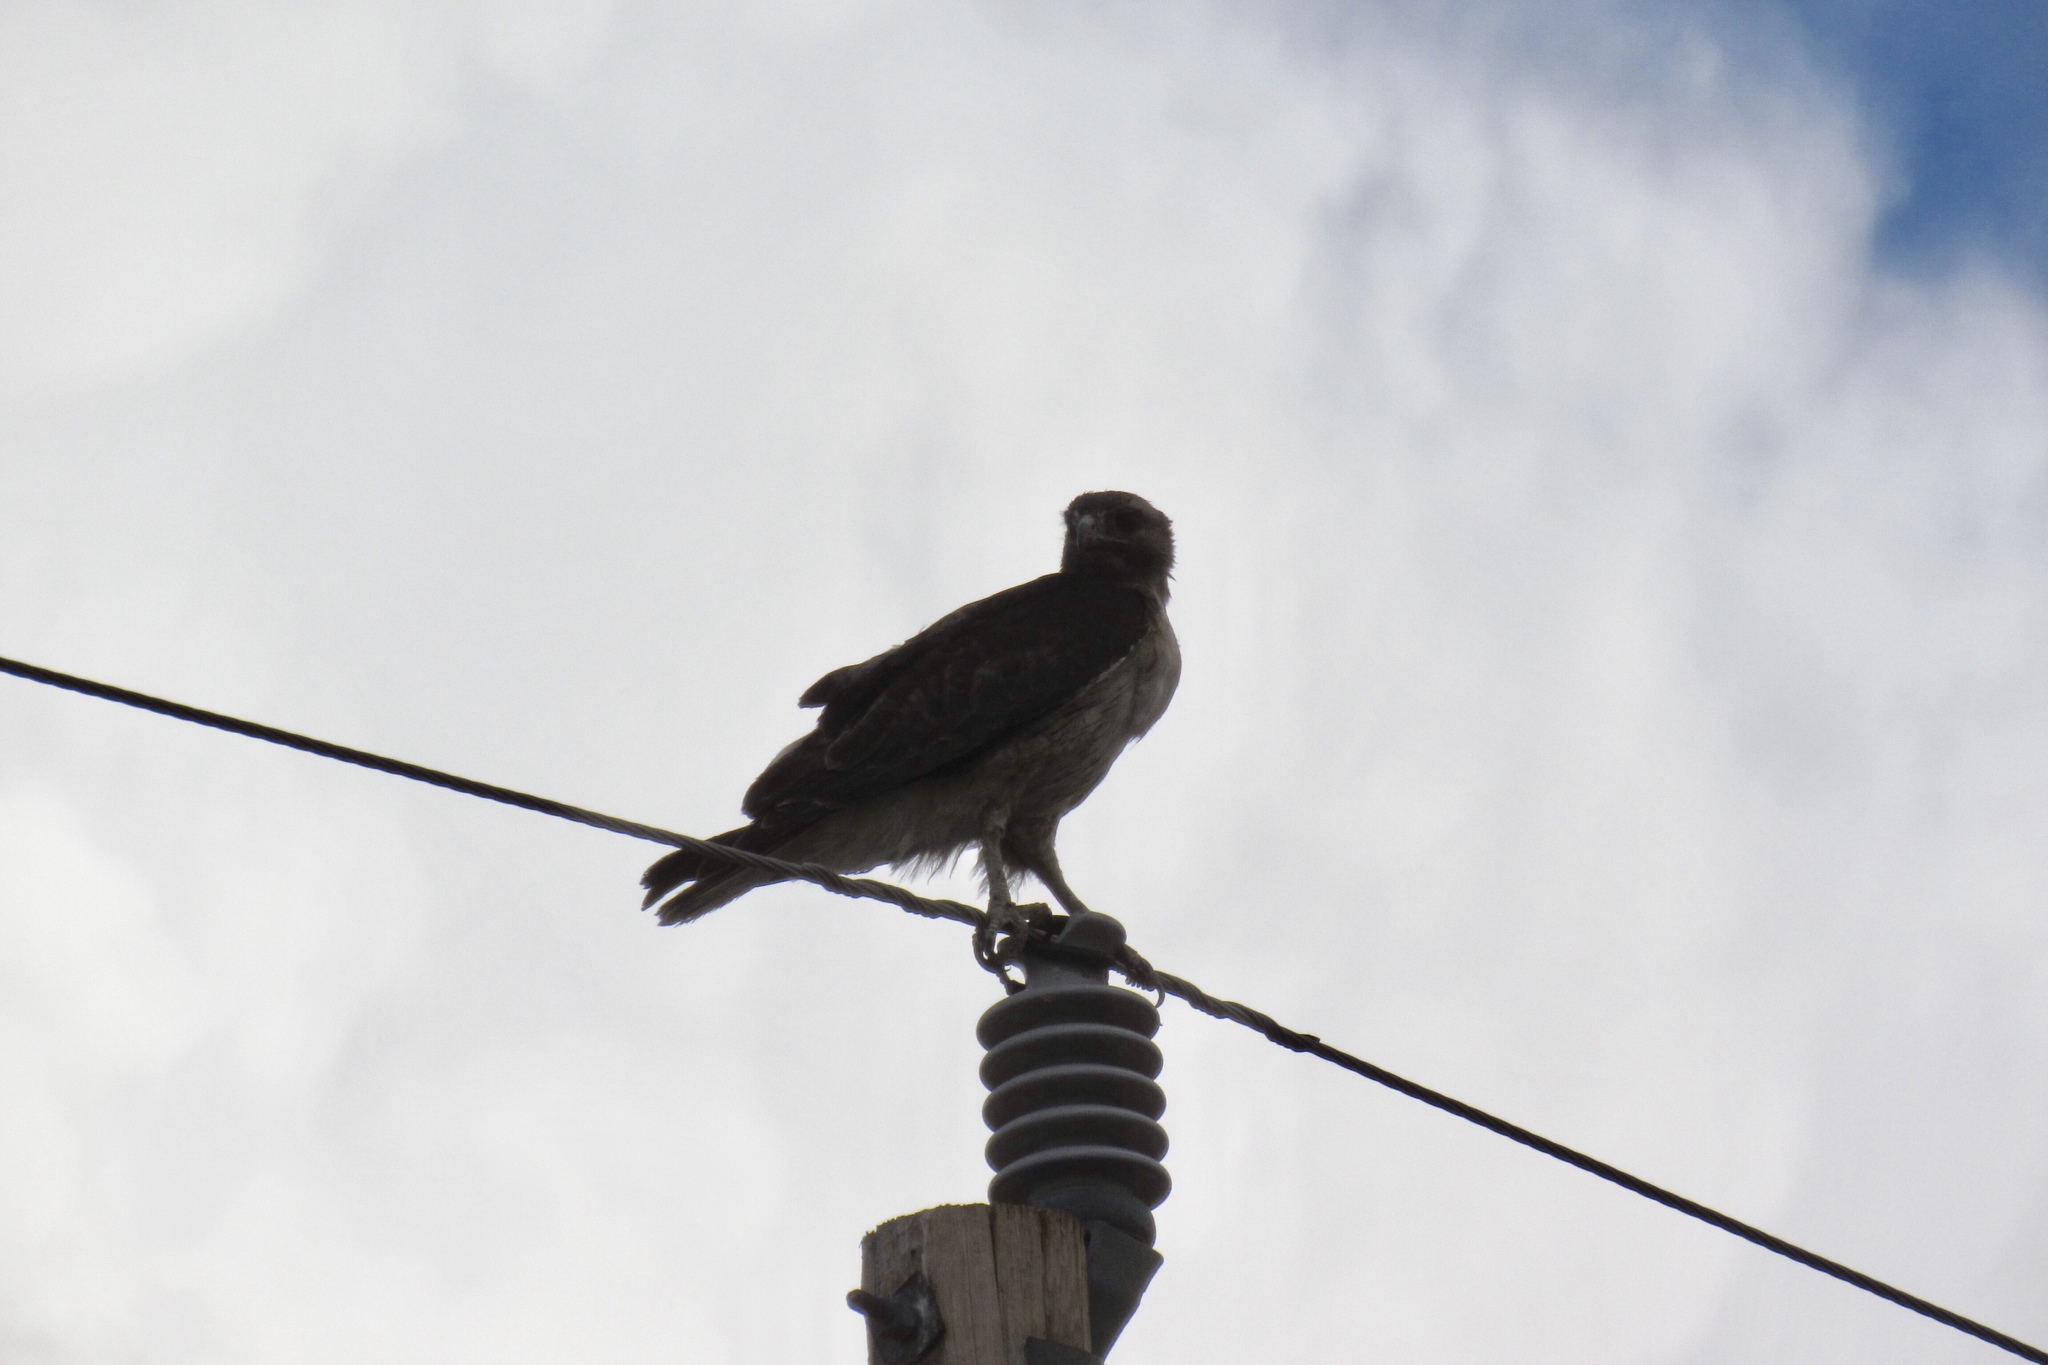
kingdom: Animalia
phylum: Chordata
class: Aves
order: Accipitriformes
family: Accipitridae
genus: Buteo
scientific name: Buteo jamaicensis
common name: Red-tailed hawk
